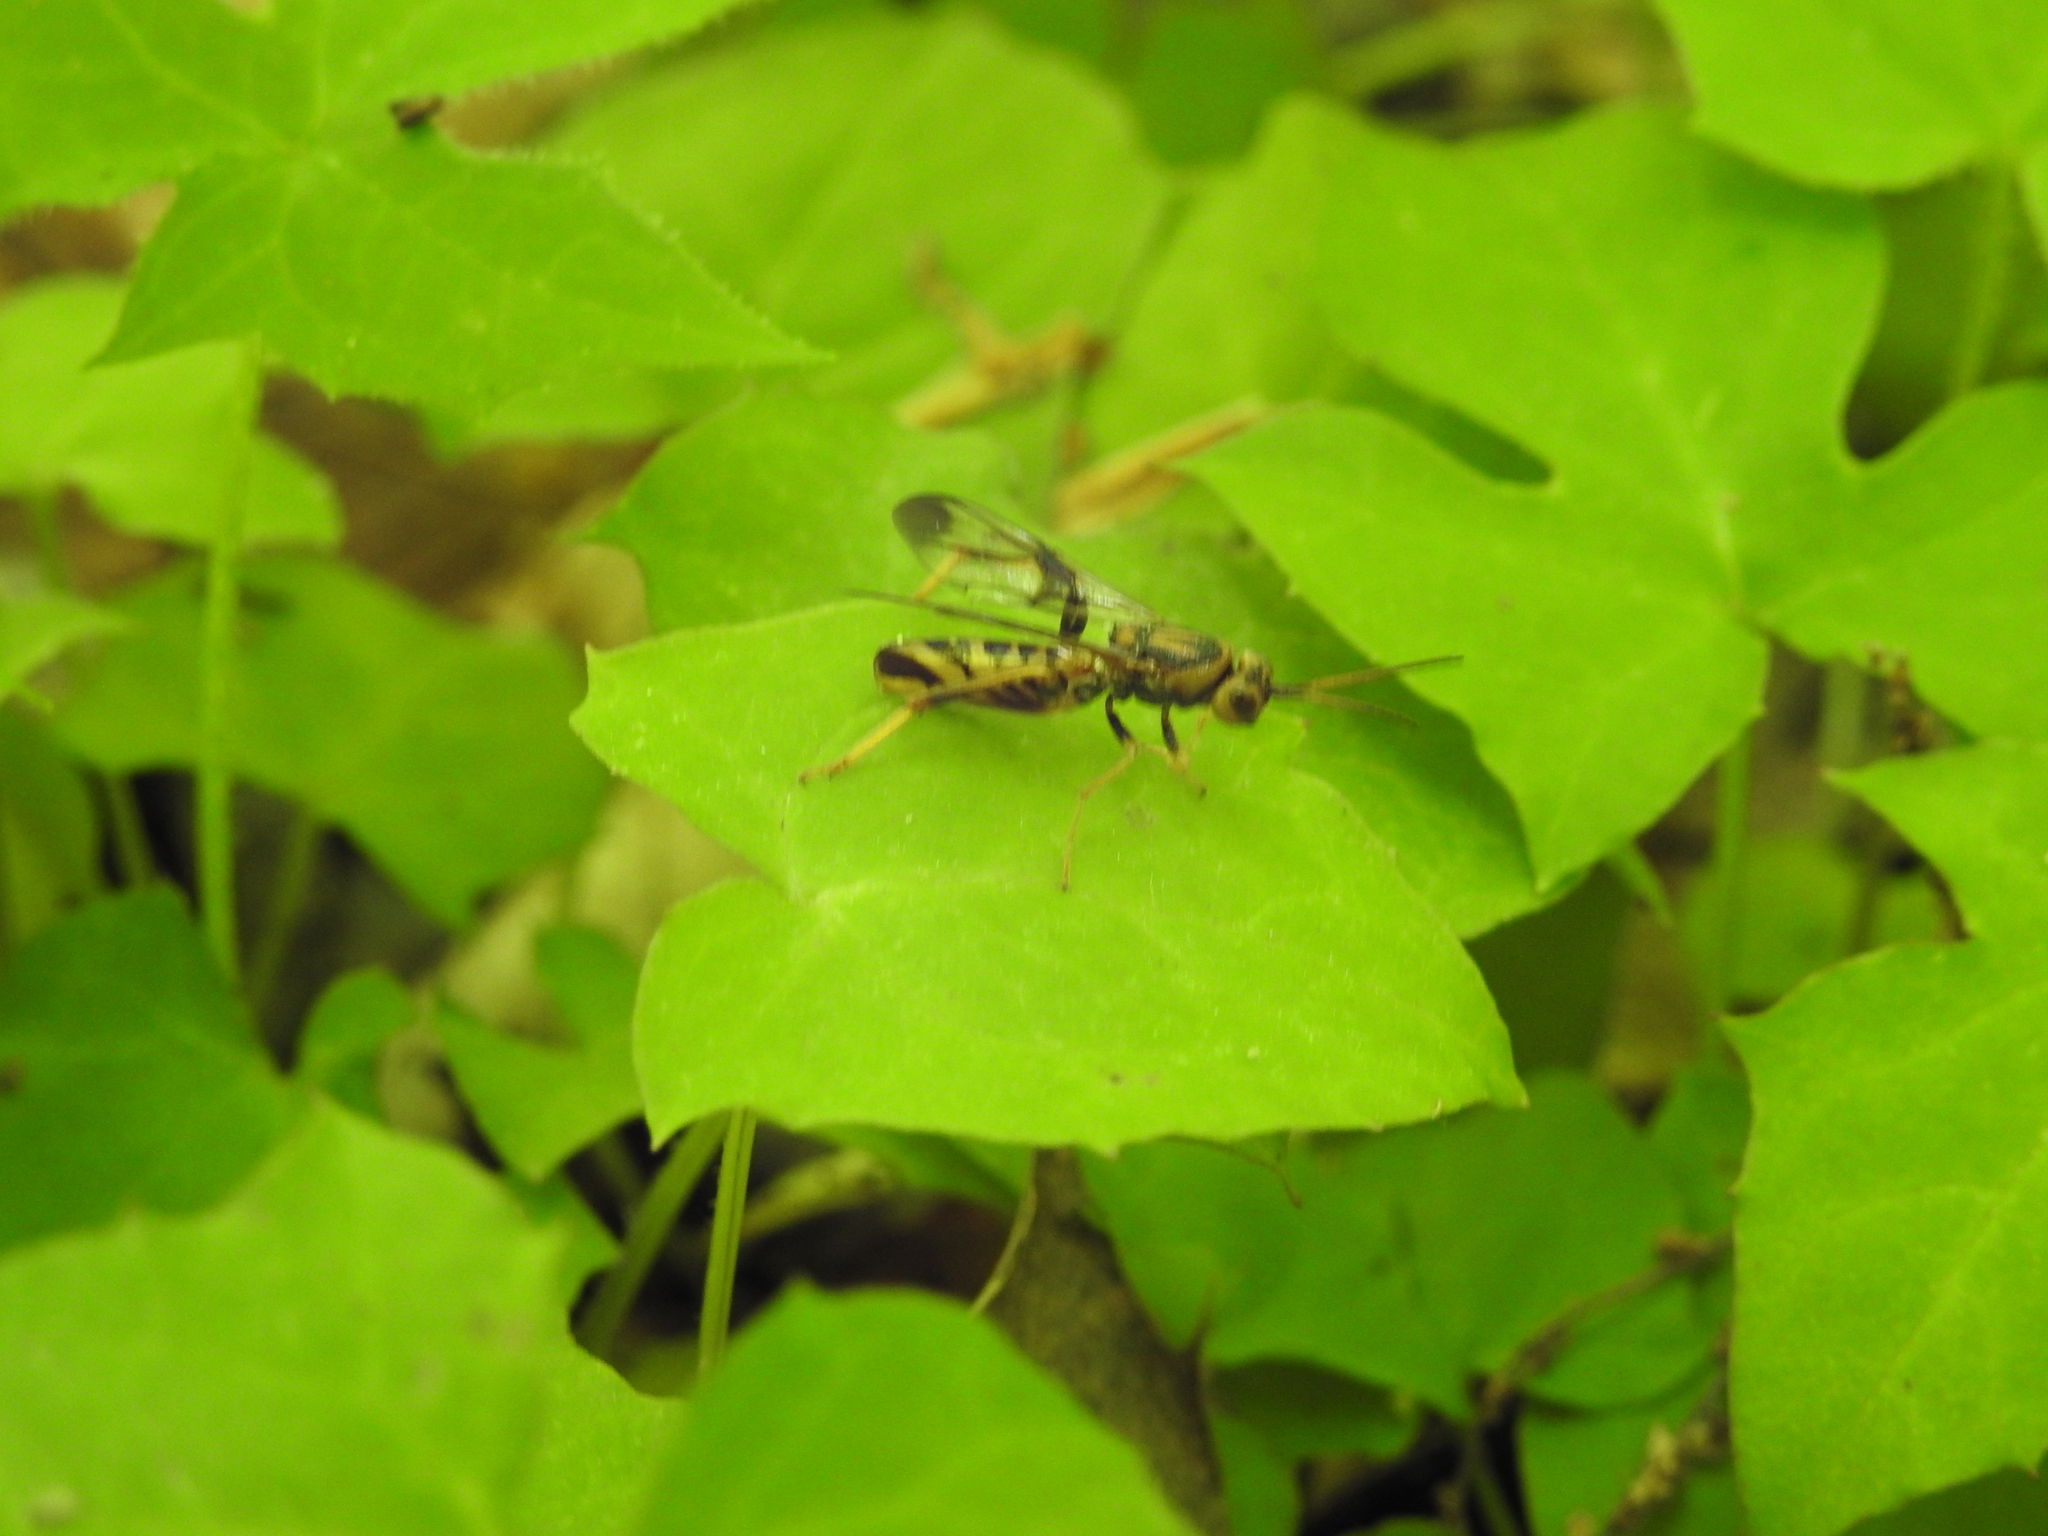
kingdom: Animalia
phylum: Arthropoda
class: Insecta
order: Hymenoptera
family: Ibaliidae
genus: Ibalia
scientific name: Ibalia anceps
